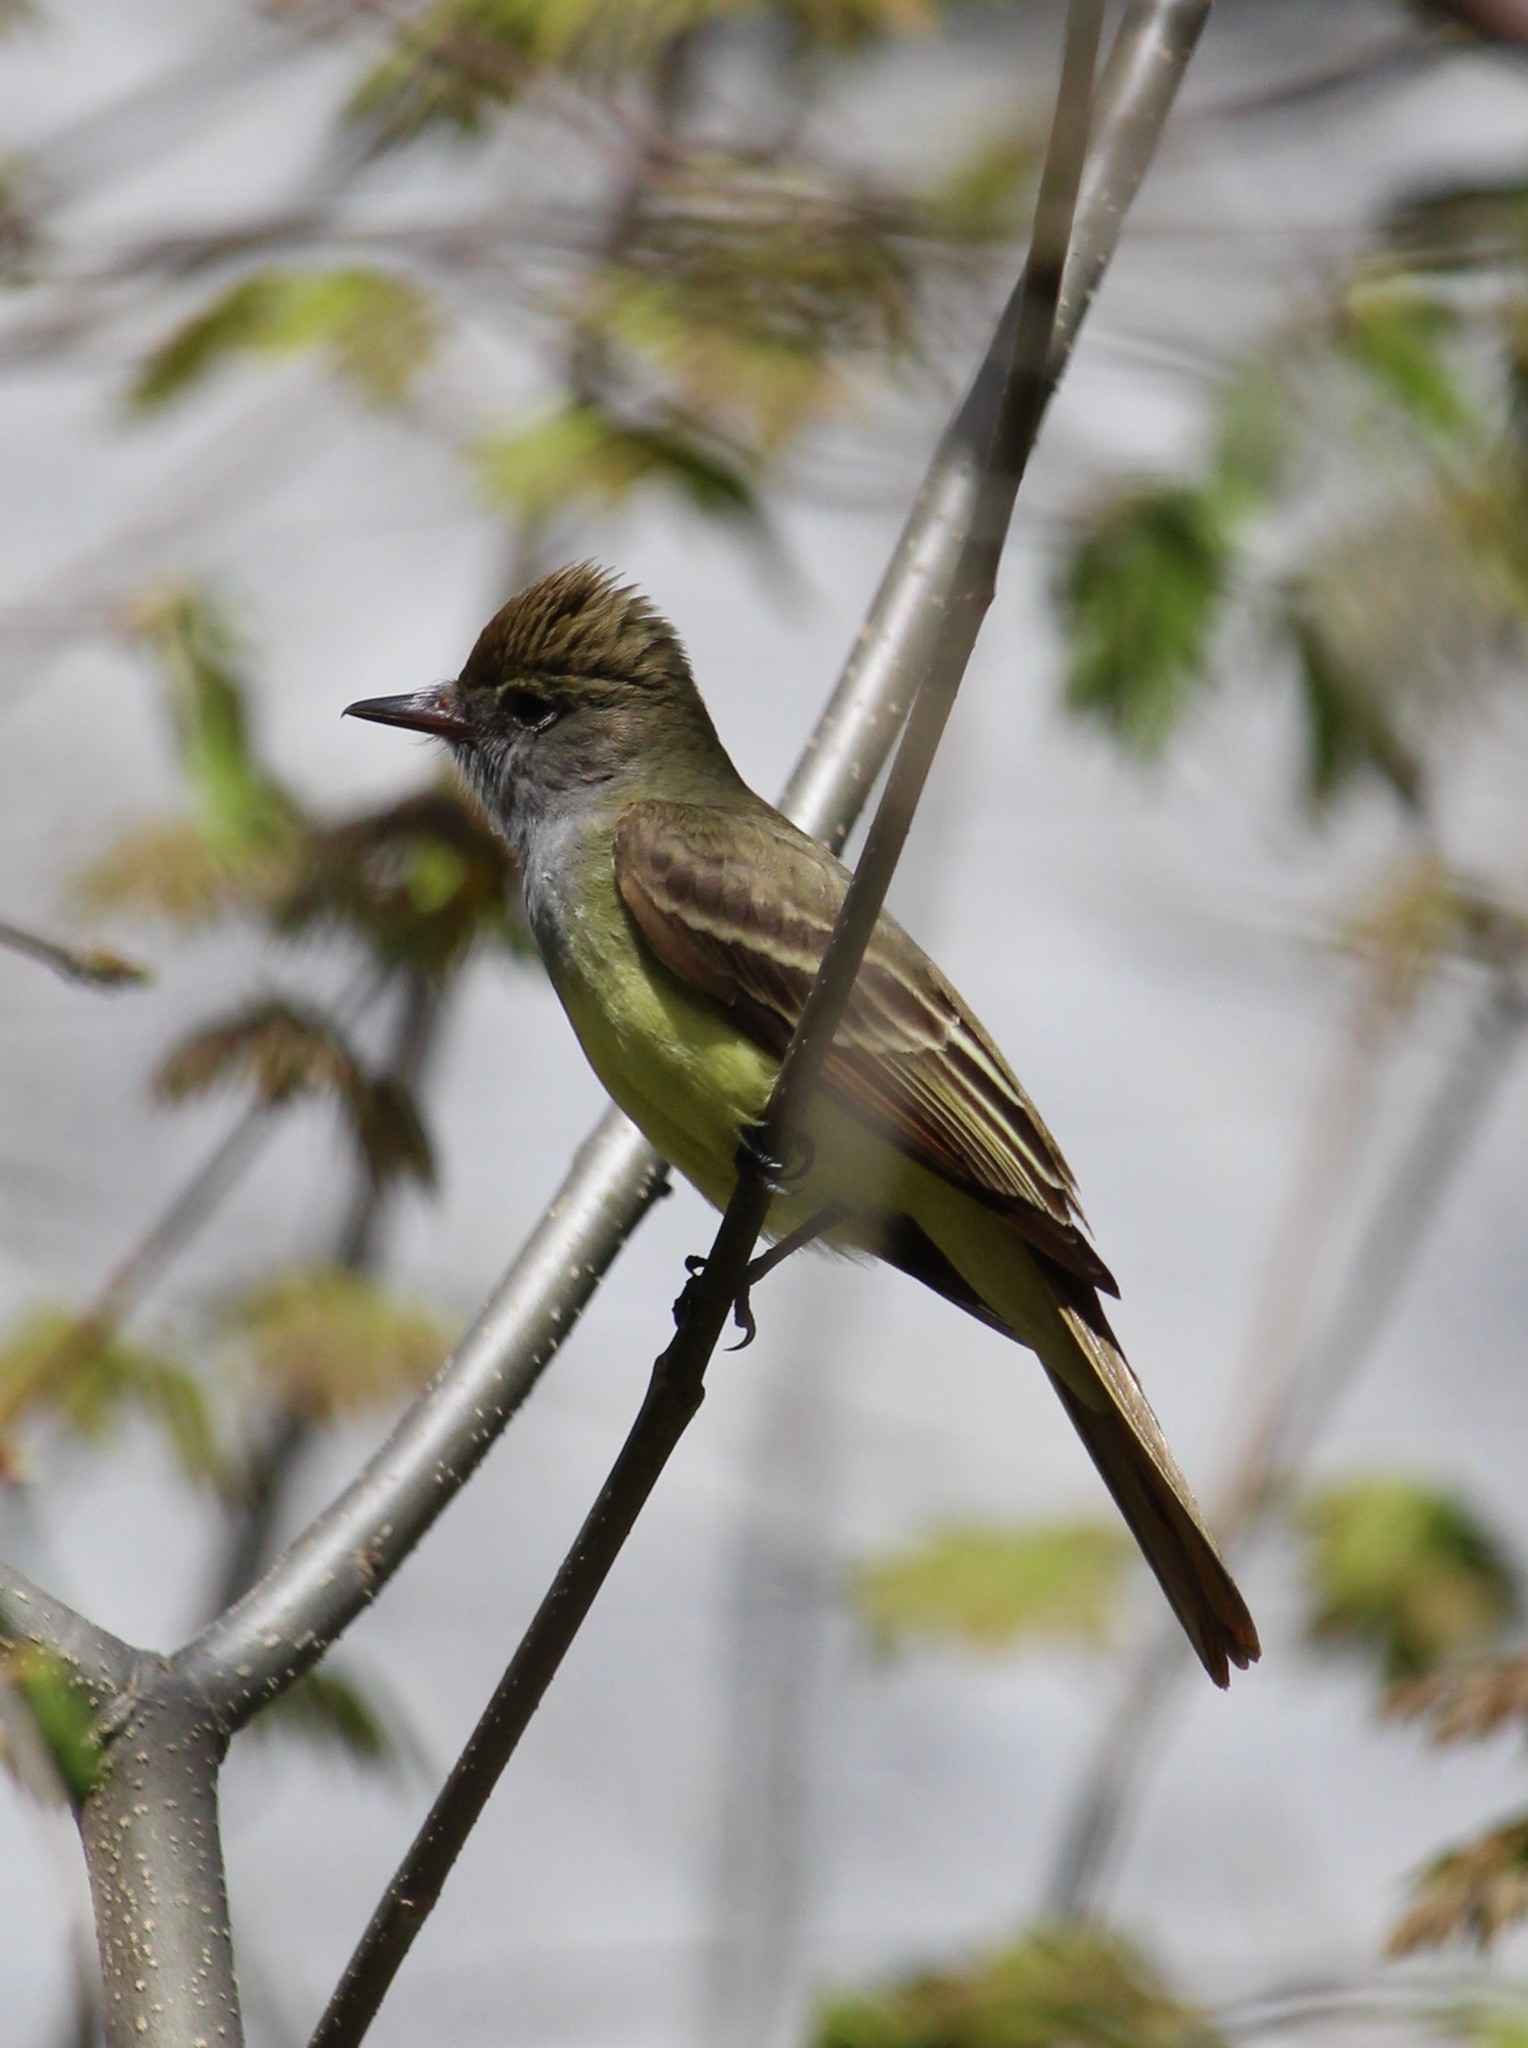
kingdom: Animalia
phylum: Chordata
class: Aves
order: Passeriformes
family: Tyrannidae
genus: Myiarchus
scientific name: Myiarchus crinitus
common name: Great crested flycatcher
